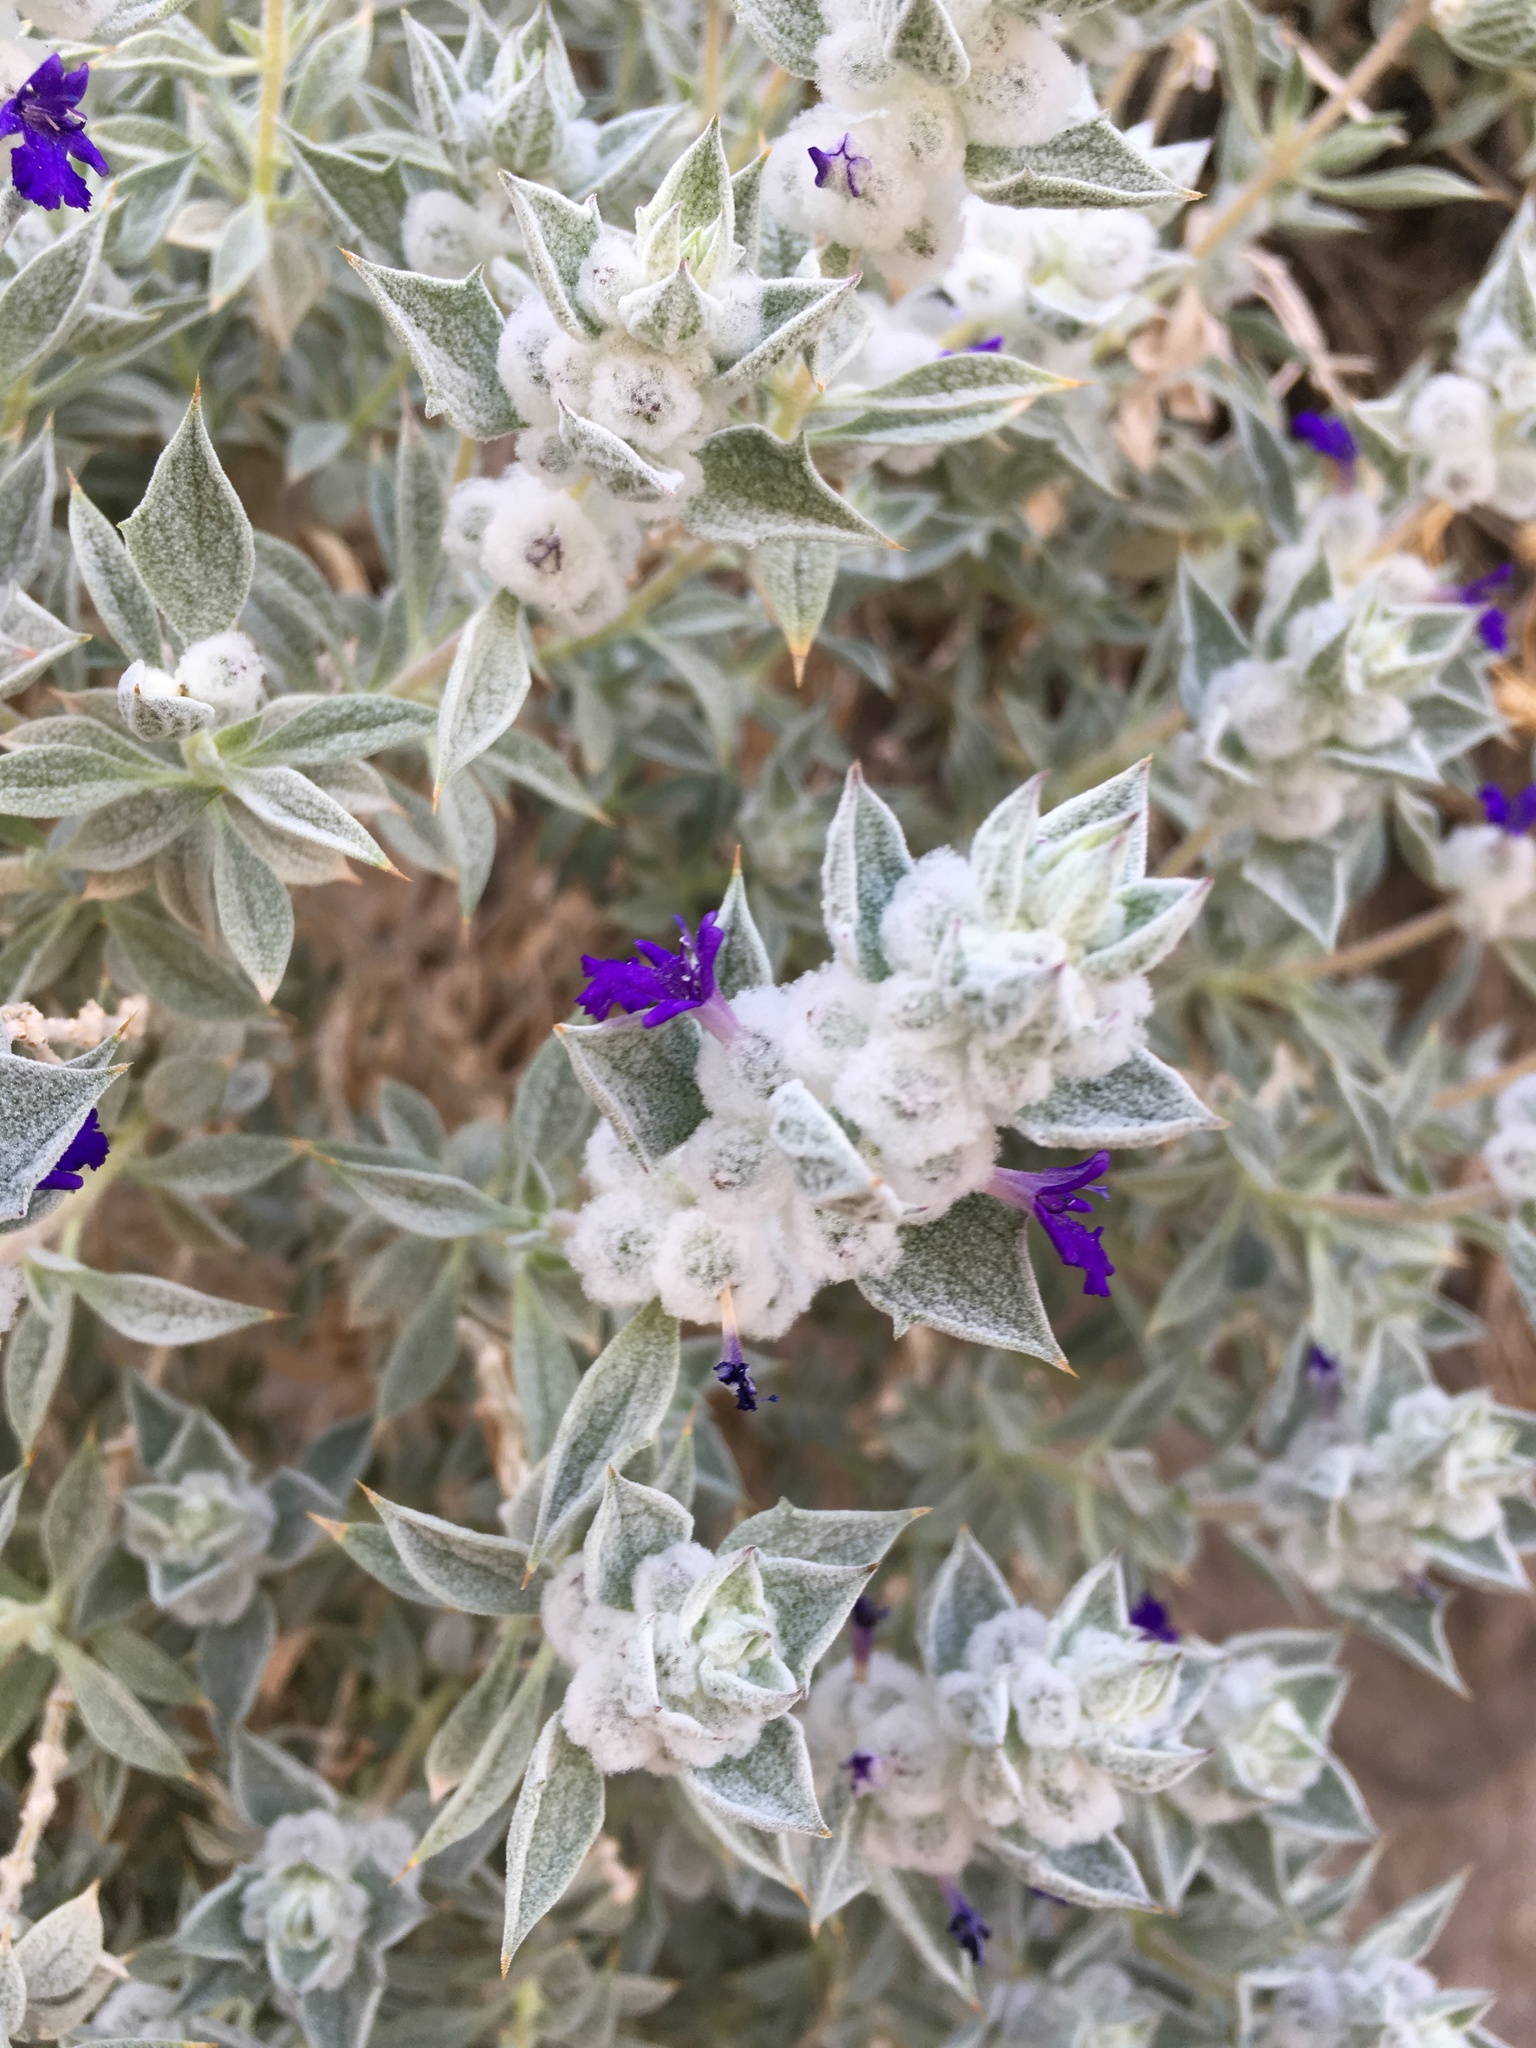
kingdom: Plantae
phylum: Tracheophyta
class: Magnoliopsida
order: Lamiales
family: Lamiaceae
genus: Salvia
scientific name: Salvia funerea
